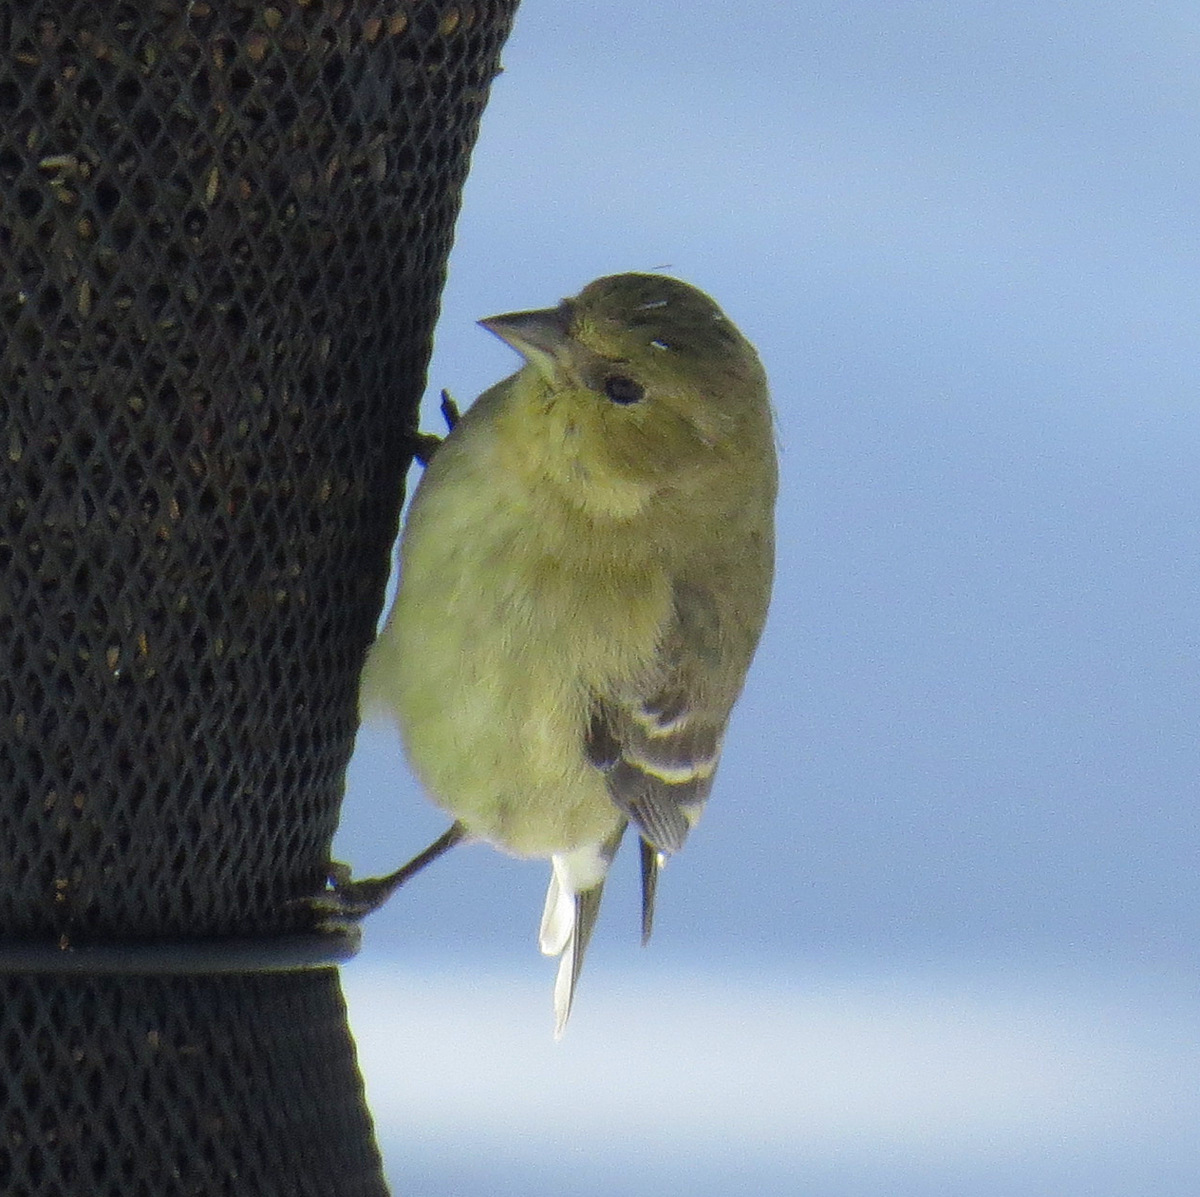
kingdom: Animalia
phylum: Chordata
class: Aves
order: Passeriformes
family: Fringillidae
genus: Spinus
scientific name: Spinus psaltria
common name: Lesser goldfinch
